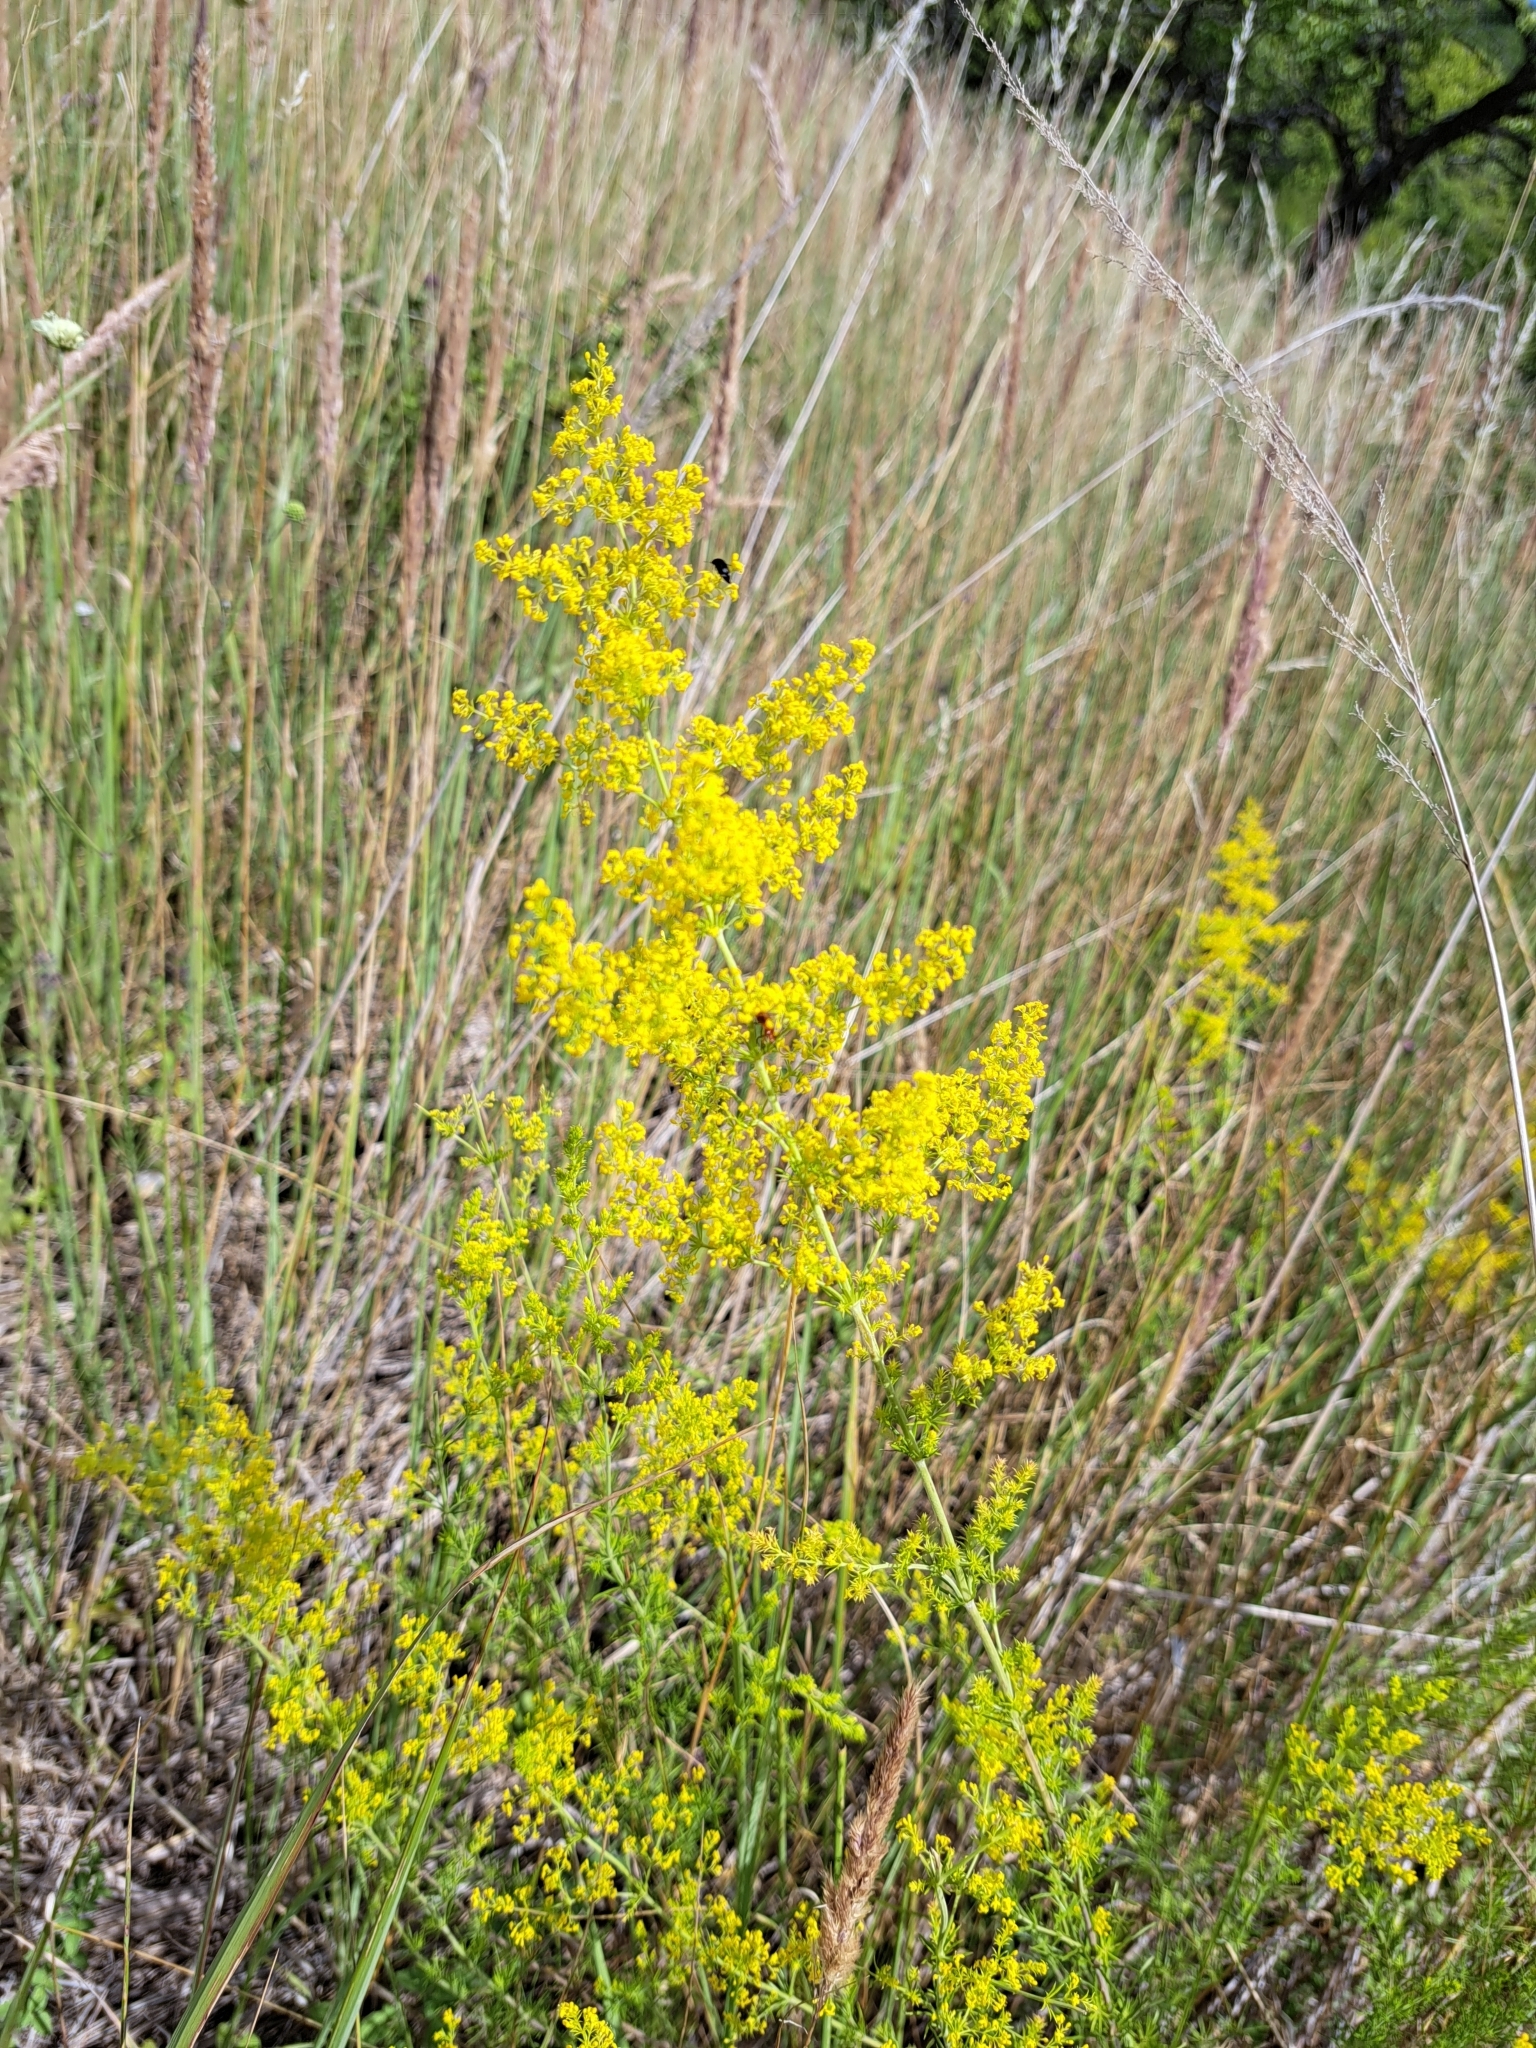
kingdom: Plantae
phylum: Tracheophyta
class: Magnoliopsida
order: Gentianales
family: Rubiaceae
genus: Galium
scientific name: Galium verum
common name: Lady's bedstraw
